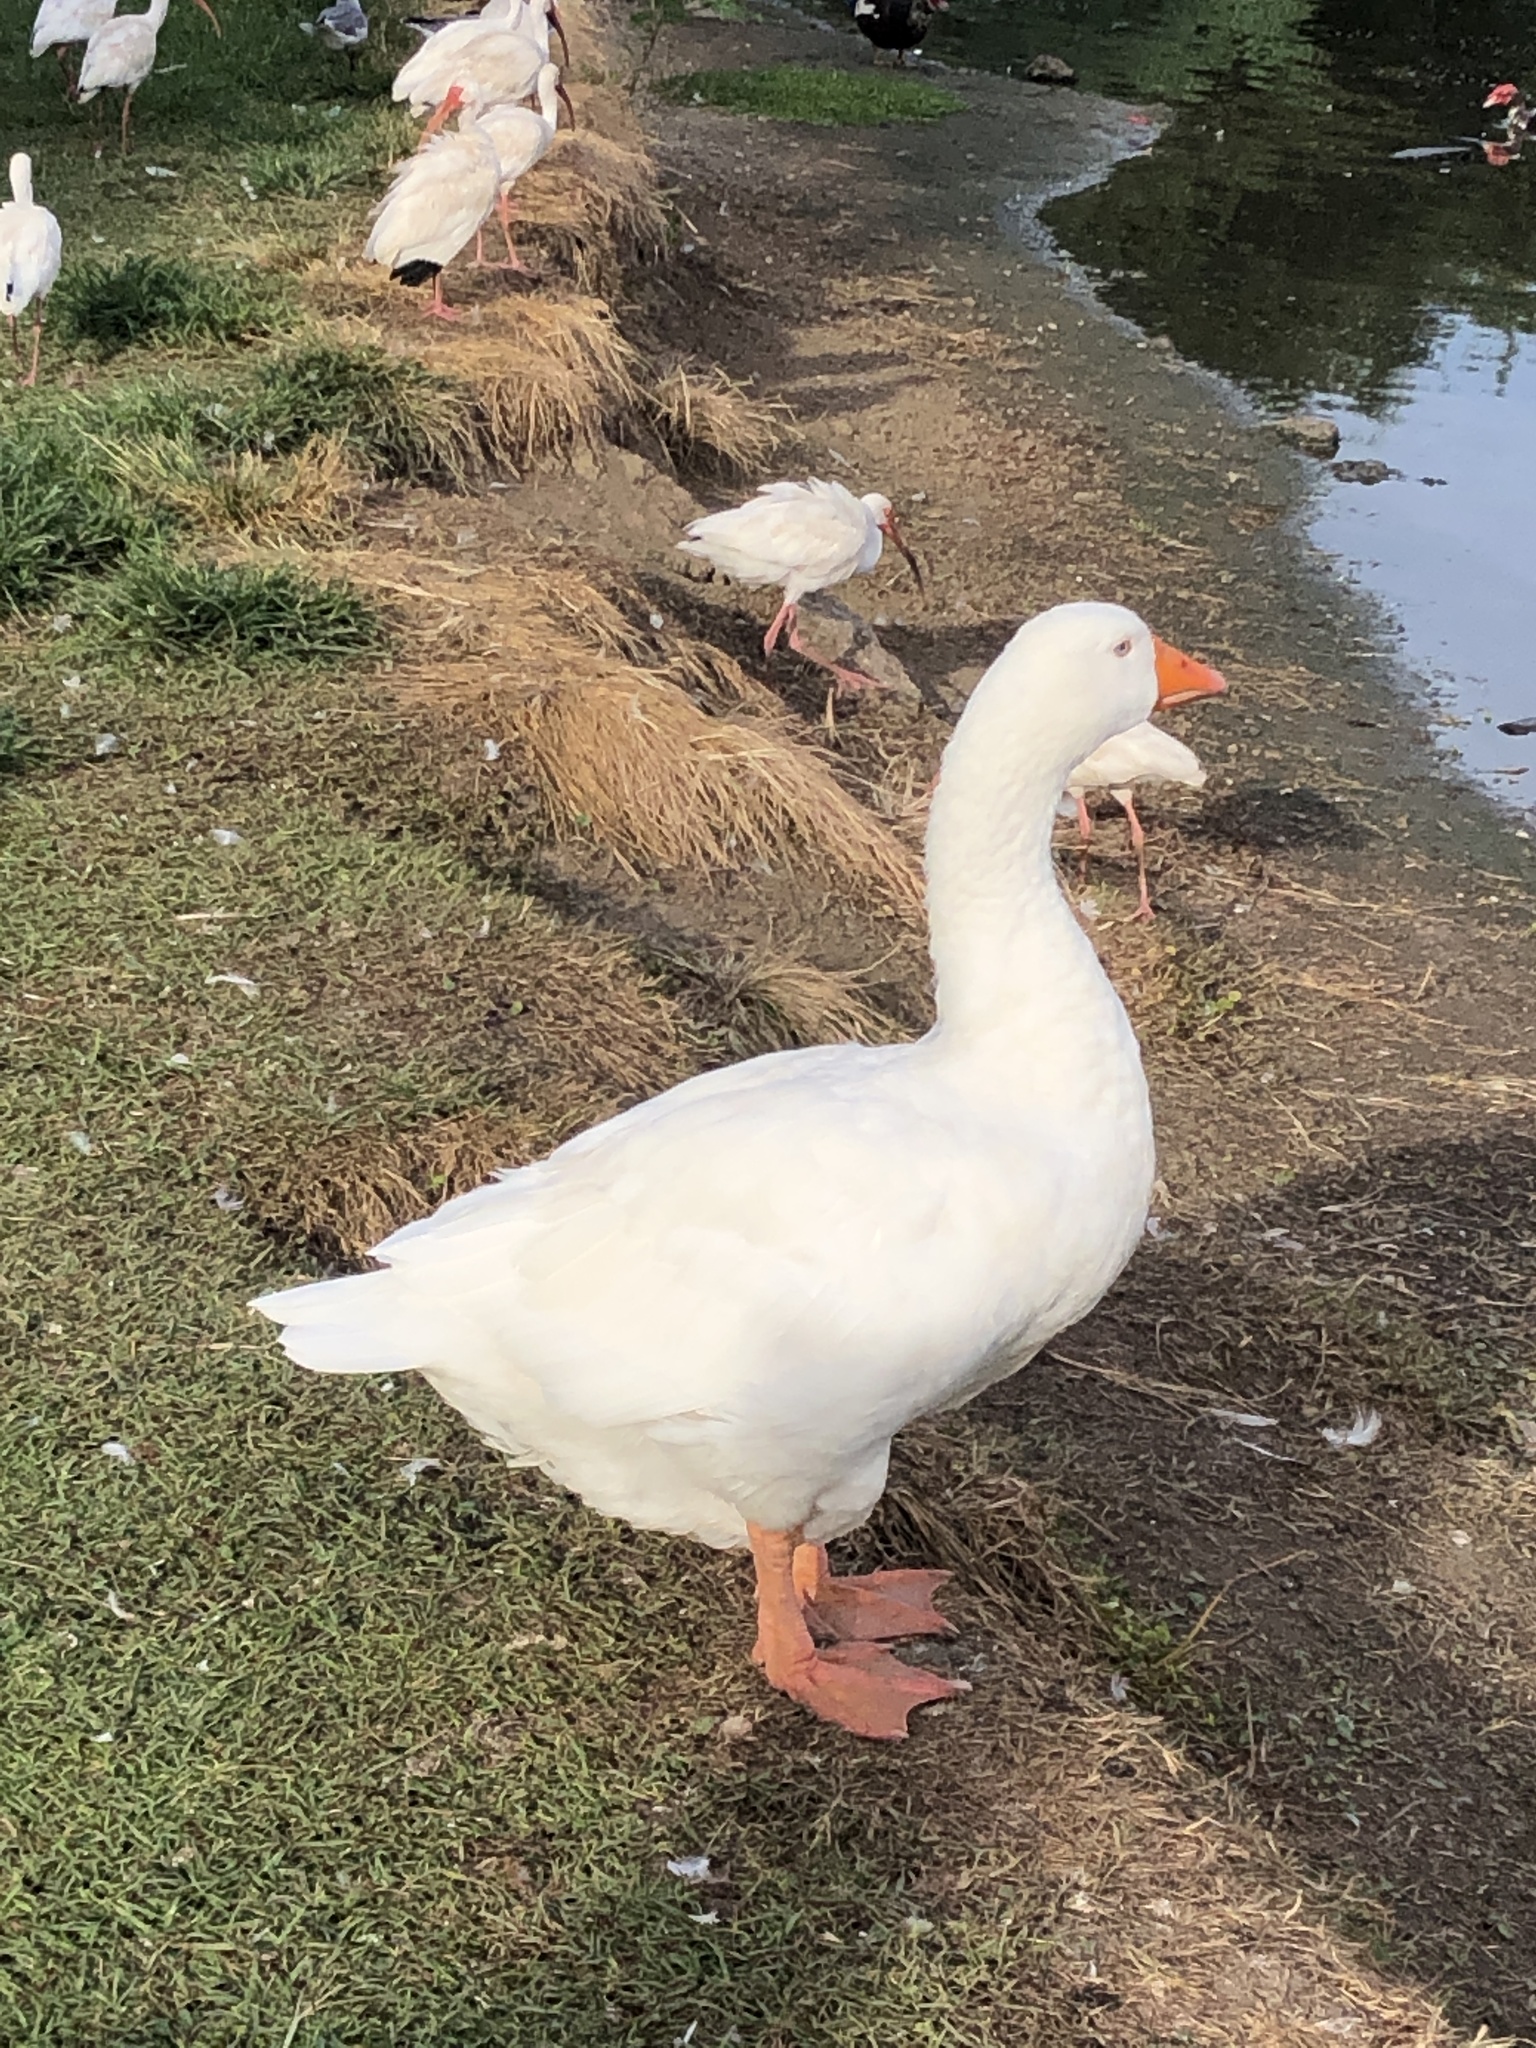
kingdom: Animalia
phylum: Chordata
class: Aves
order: Anseriformes
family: Anatidae
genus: Anser
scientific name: Anser anser
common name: Greylag goose
